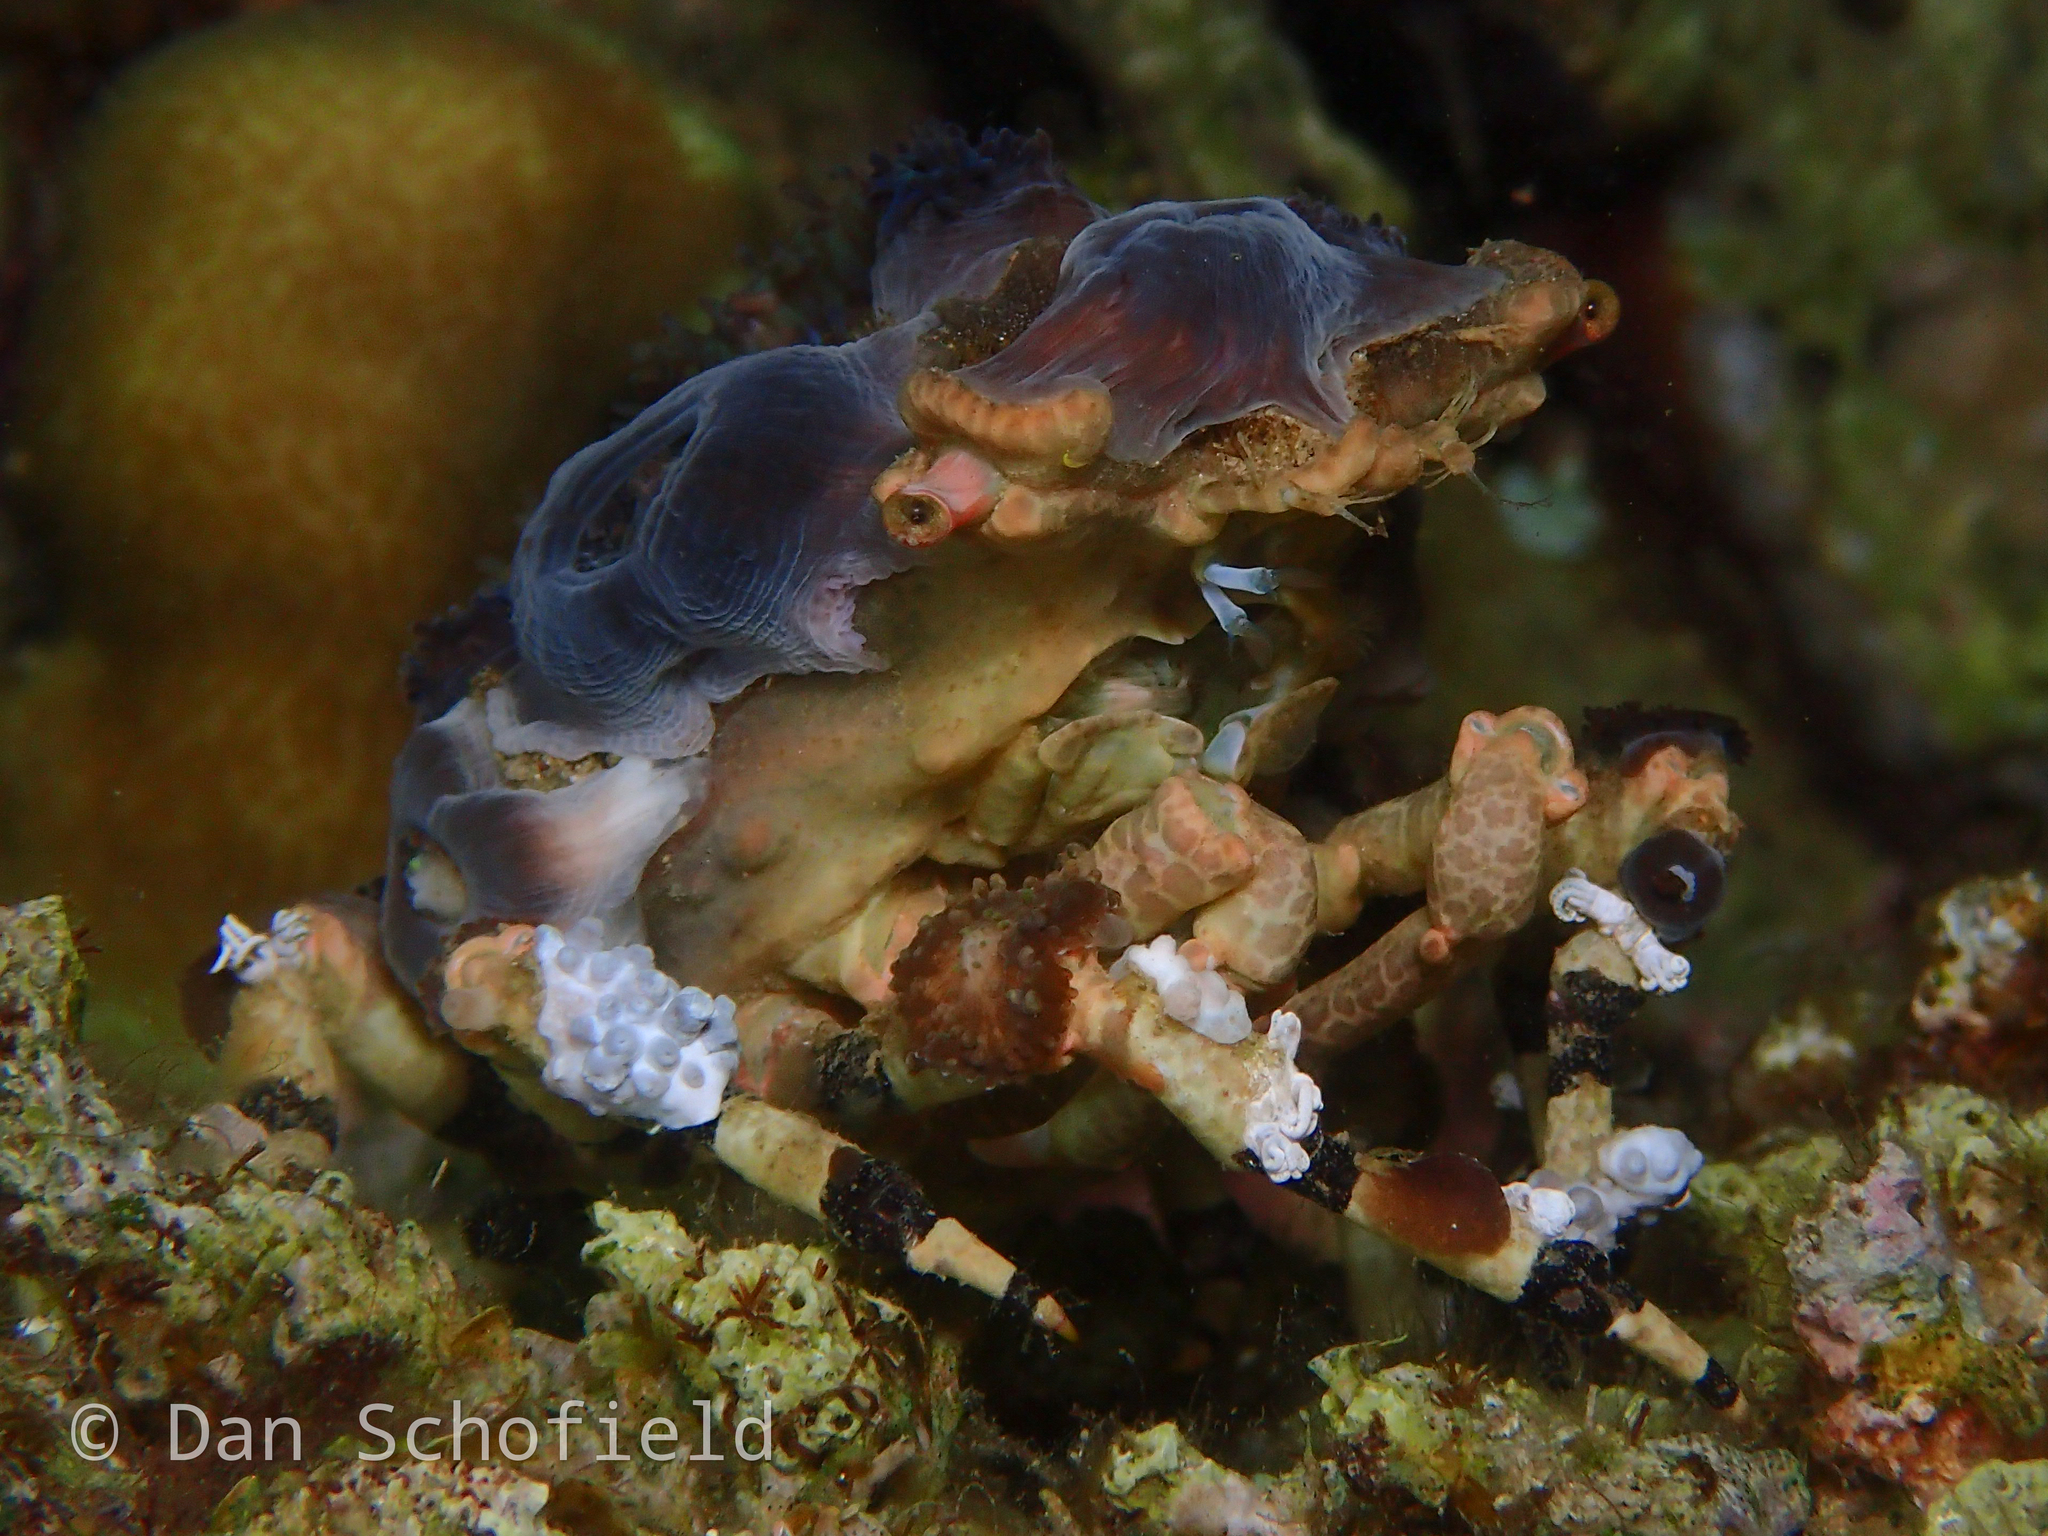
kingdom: Animalia
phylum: Arthropoda
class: Malacostraca
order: Decapoda
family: Epialtidae
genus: Cyclocoeloma
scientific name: Cyclocoeloma tuberculatum
